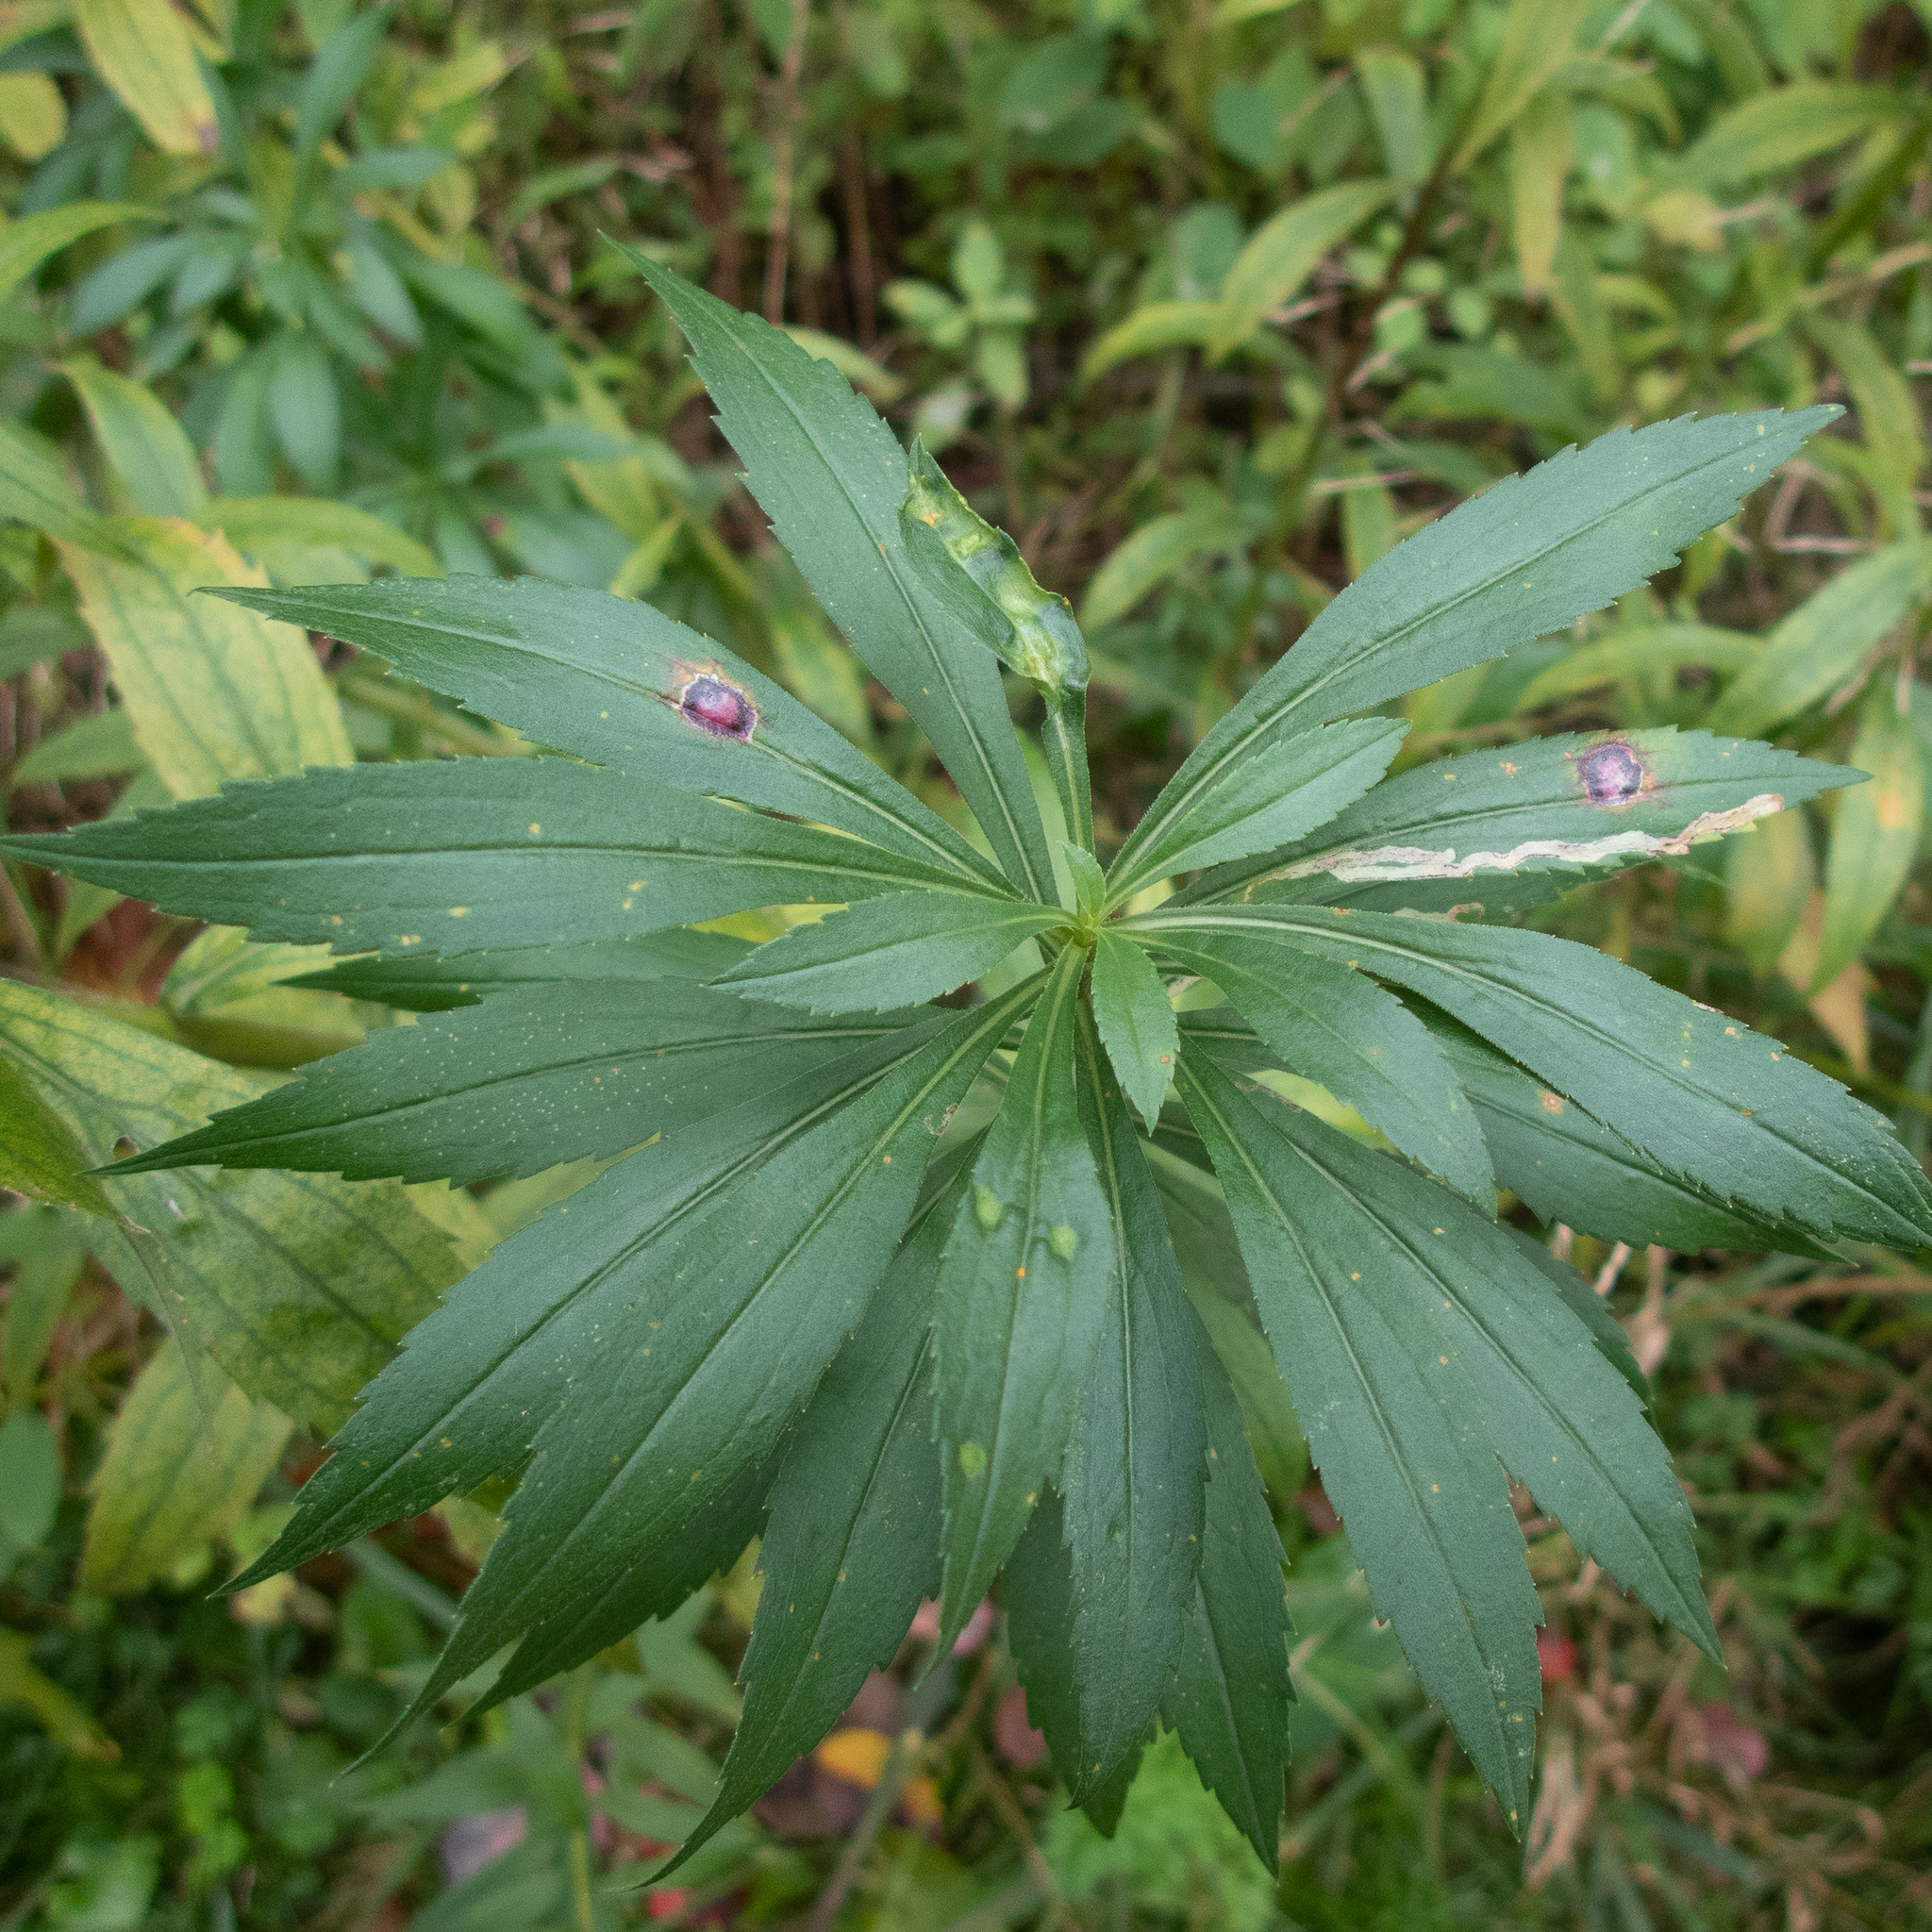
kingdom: Animalia
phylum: Arthropoda
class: Insecta
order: Diptera
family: Cecidomyiidae
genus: Asteromyia
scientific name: Asteromyia carbonifera
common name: Carbonifera goldenrod gall midge
